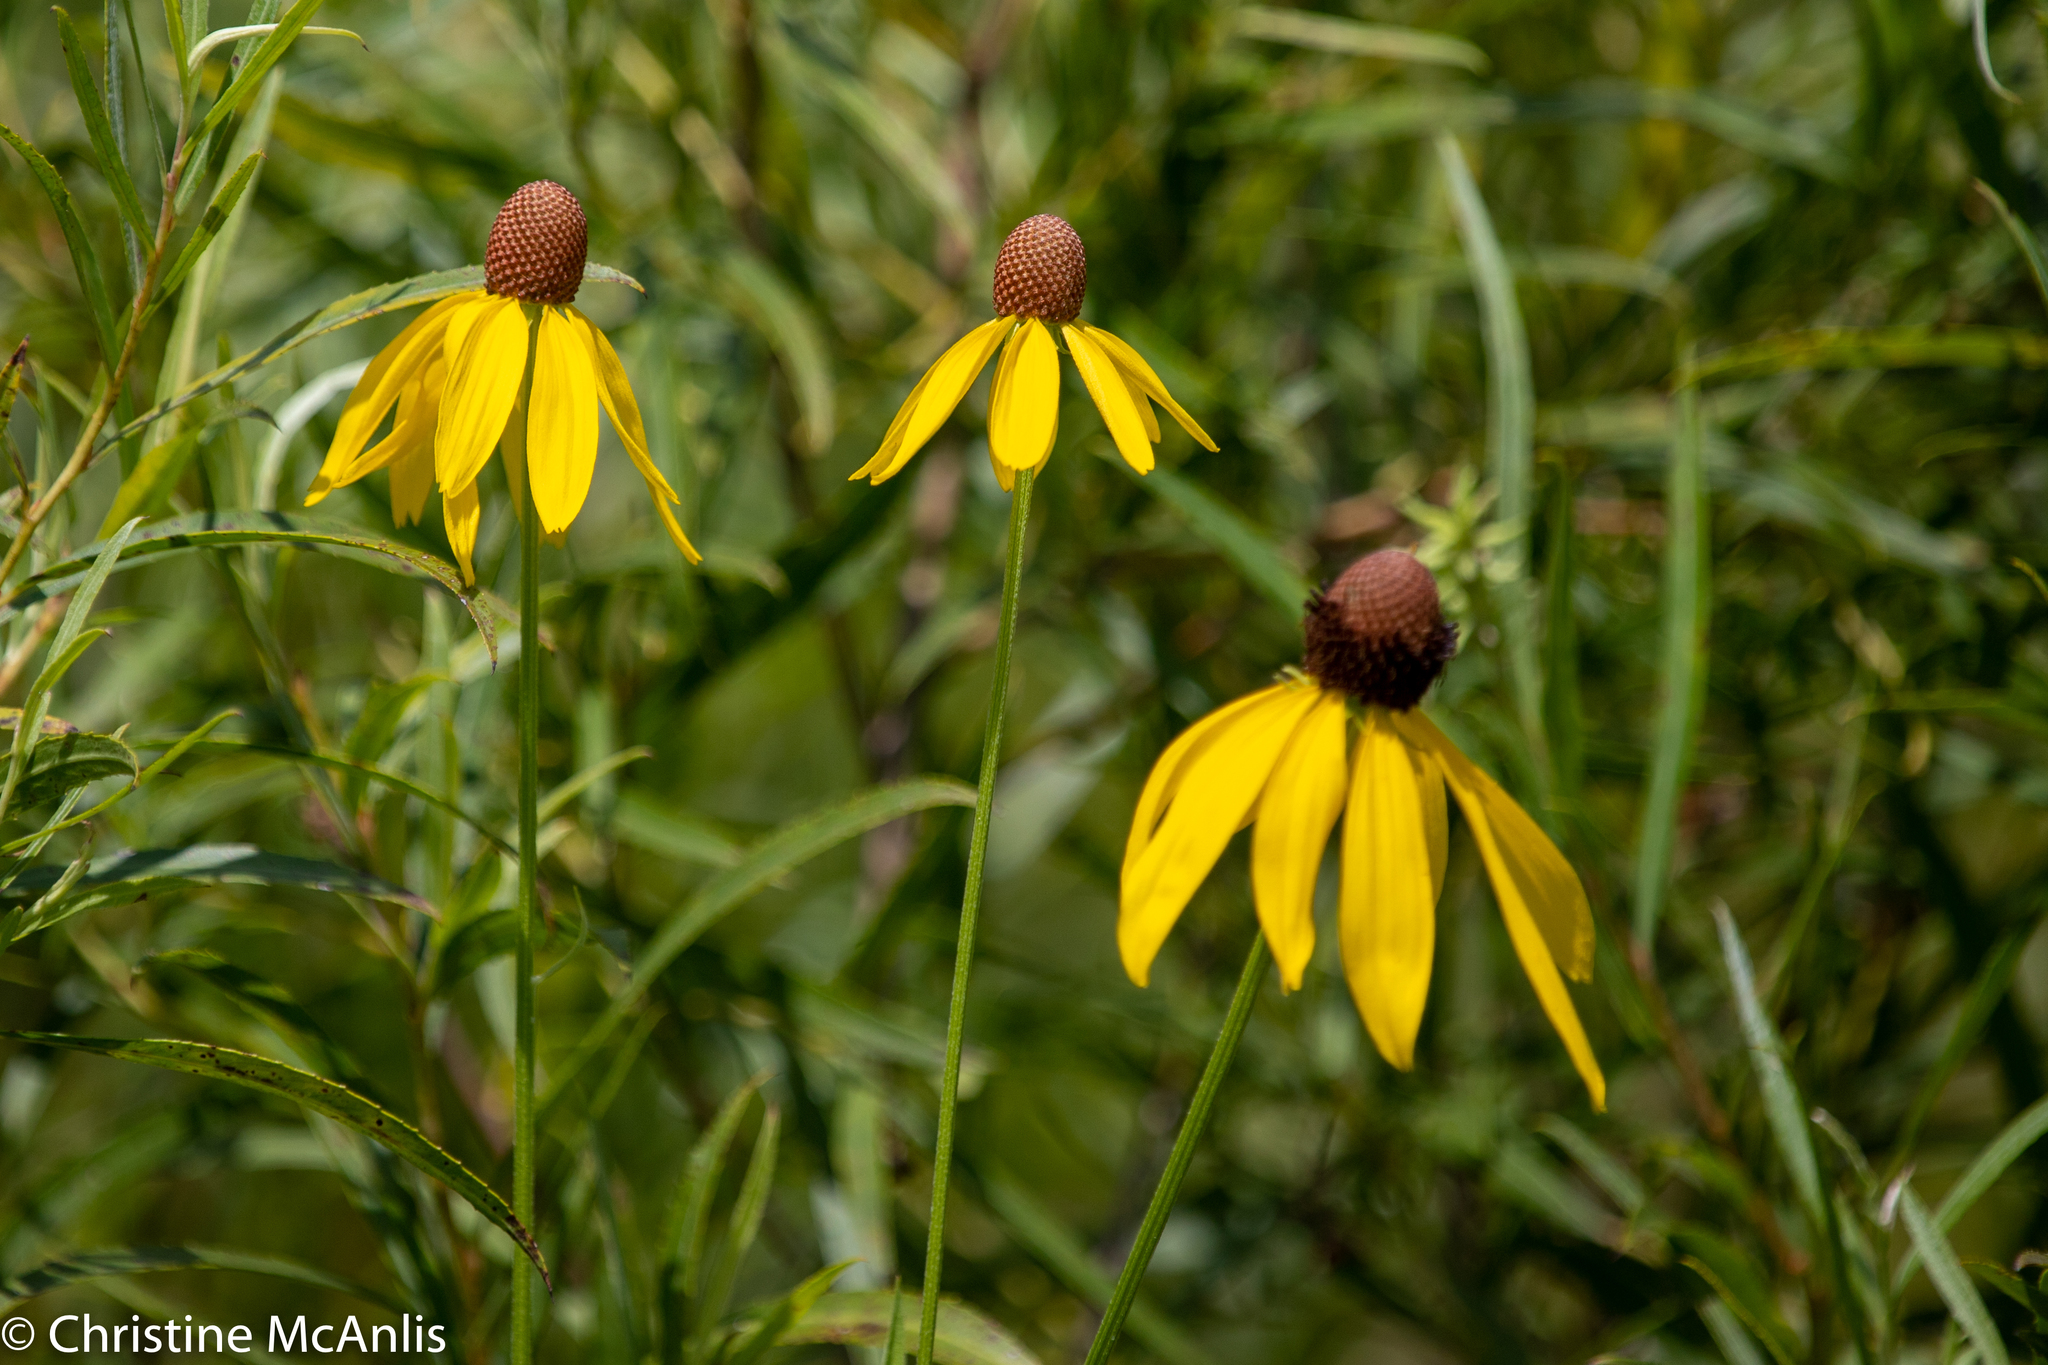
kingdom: Plantae
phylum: Tracheophyta
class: Magnoliopsida
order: Asterales
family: Asteraceae
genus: Ratibida
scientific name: Ratibida pinnata
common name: Drooping prairie-coneflower
